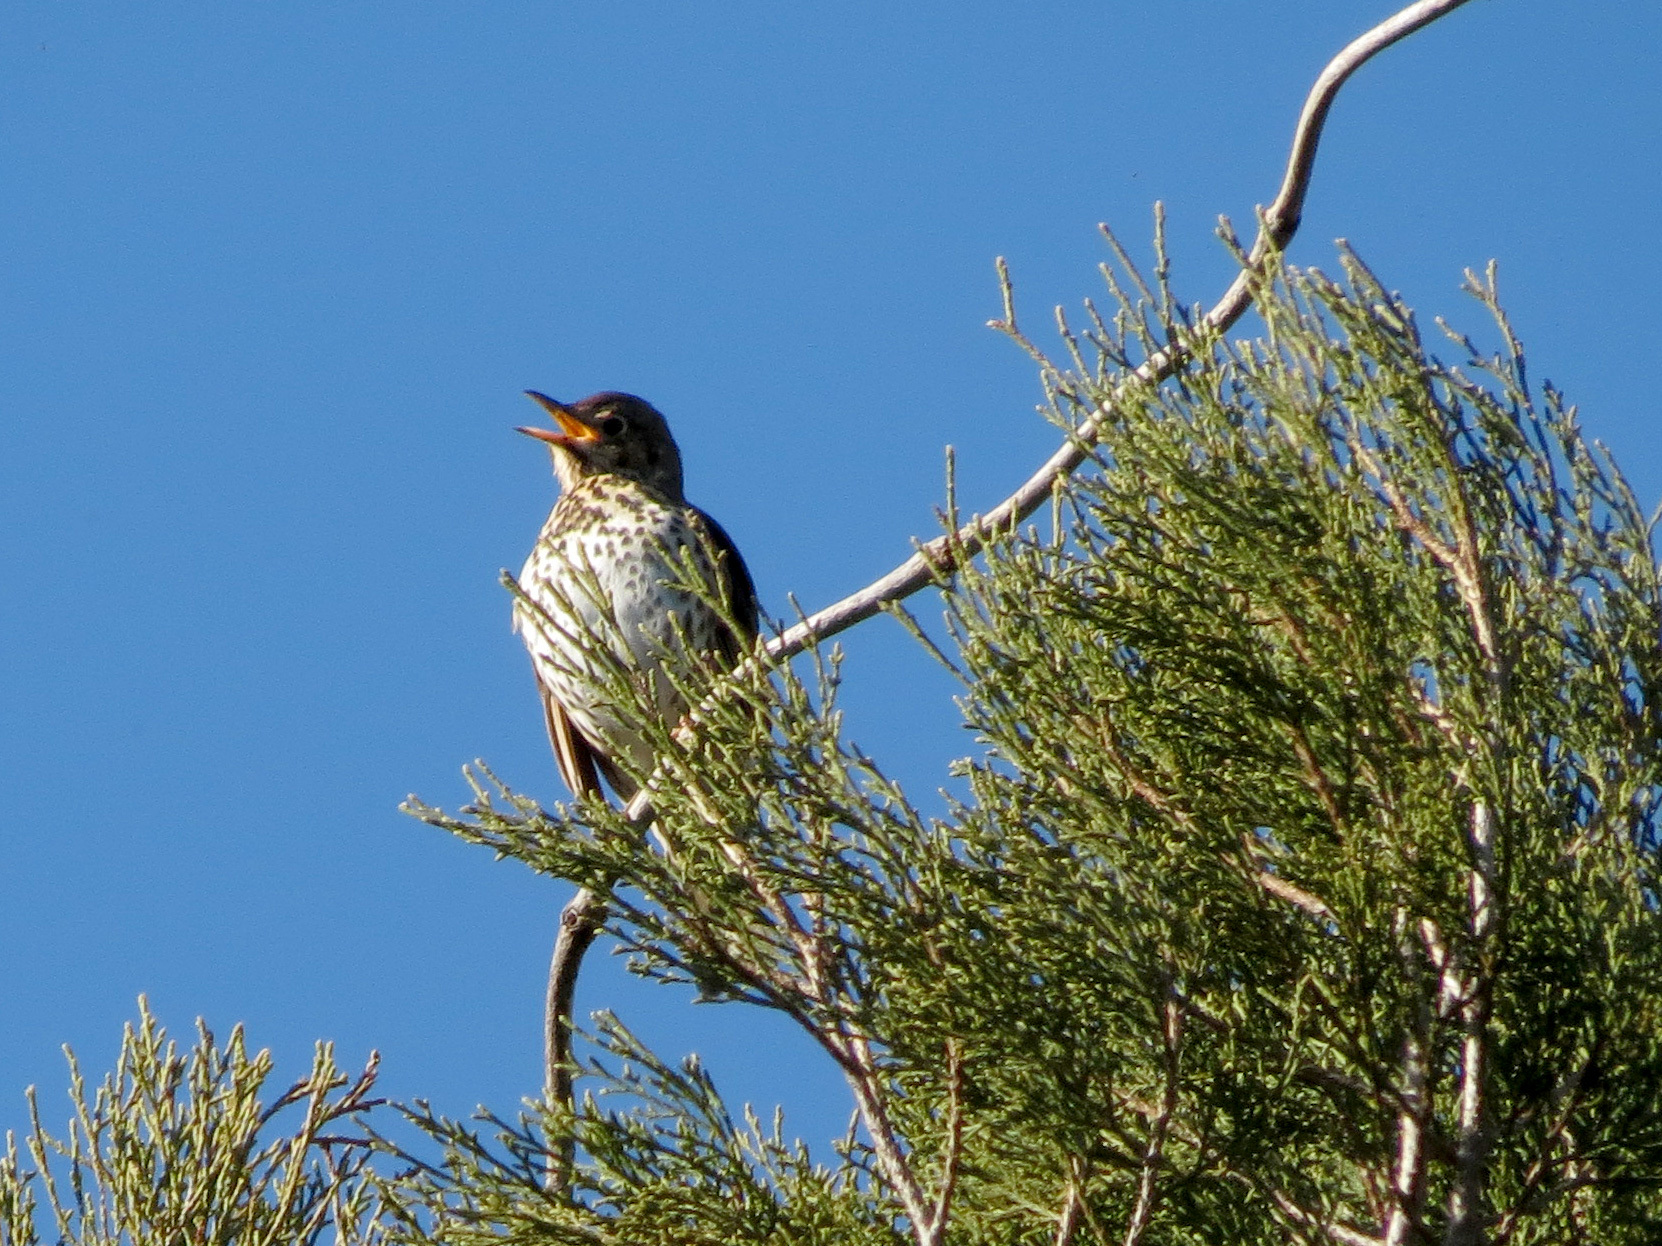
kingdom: Animalia
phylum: Chordata
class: Aves
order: Passeriformes
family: Turdidae
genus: Turdus
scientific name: Turdus philomelos
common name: Song thrush
